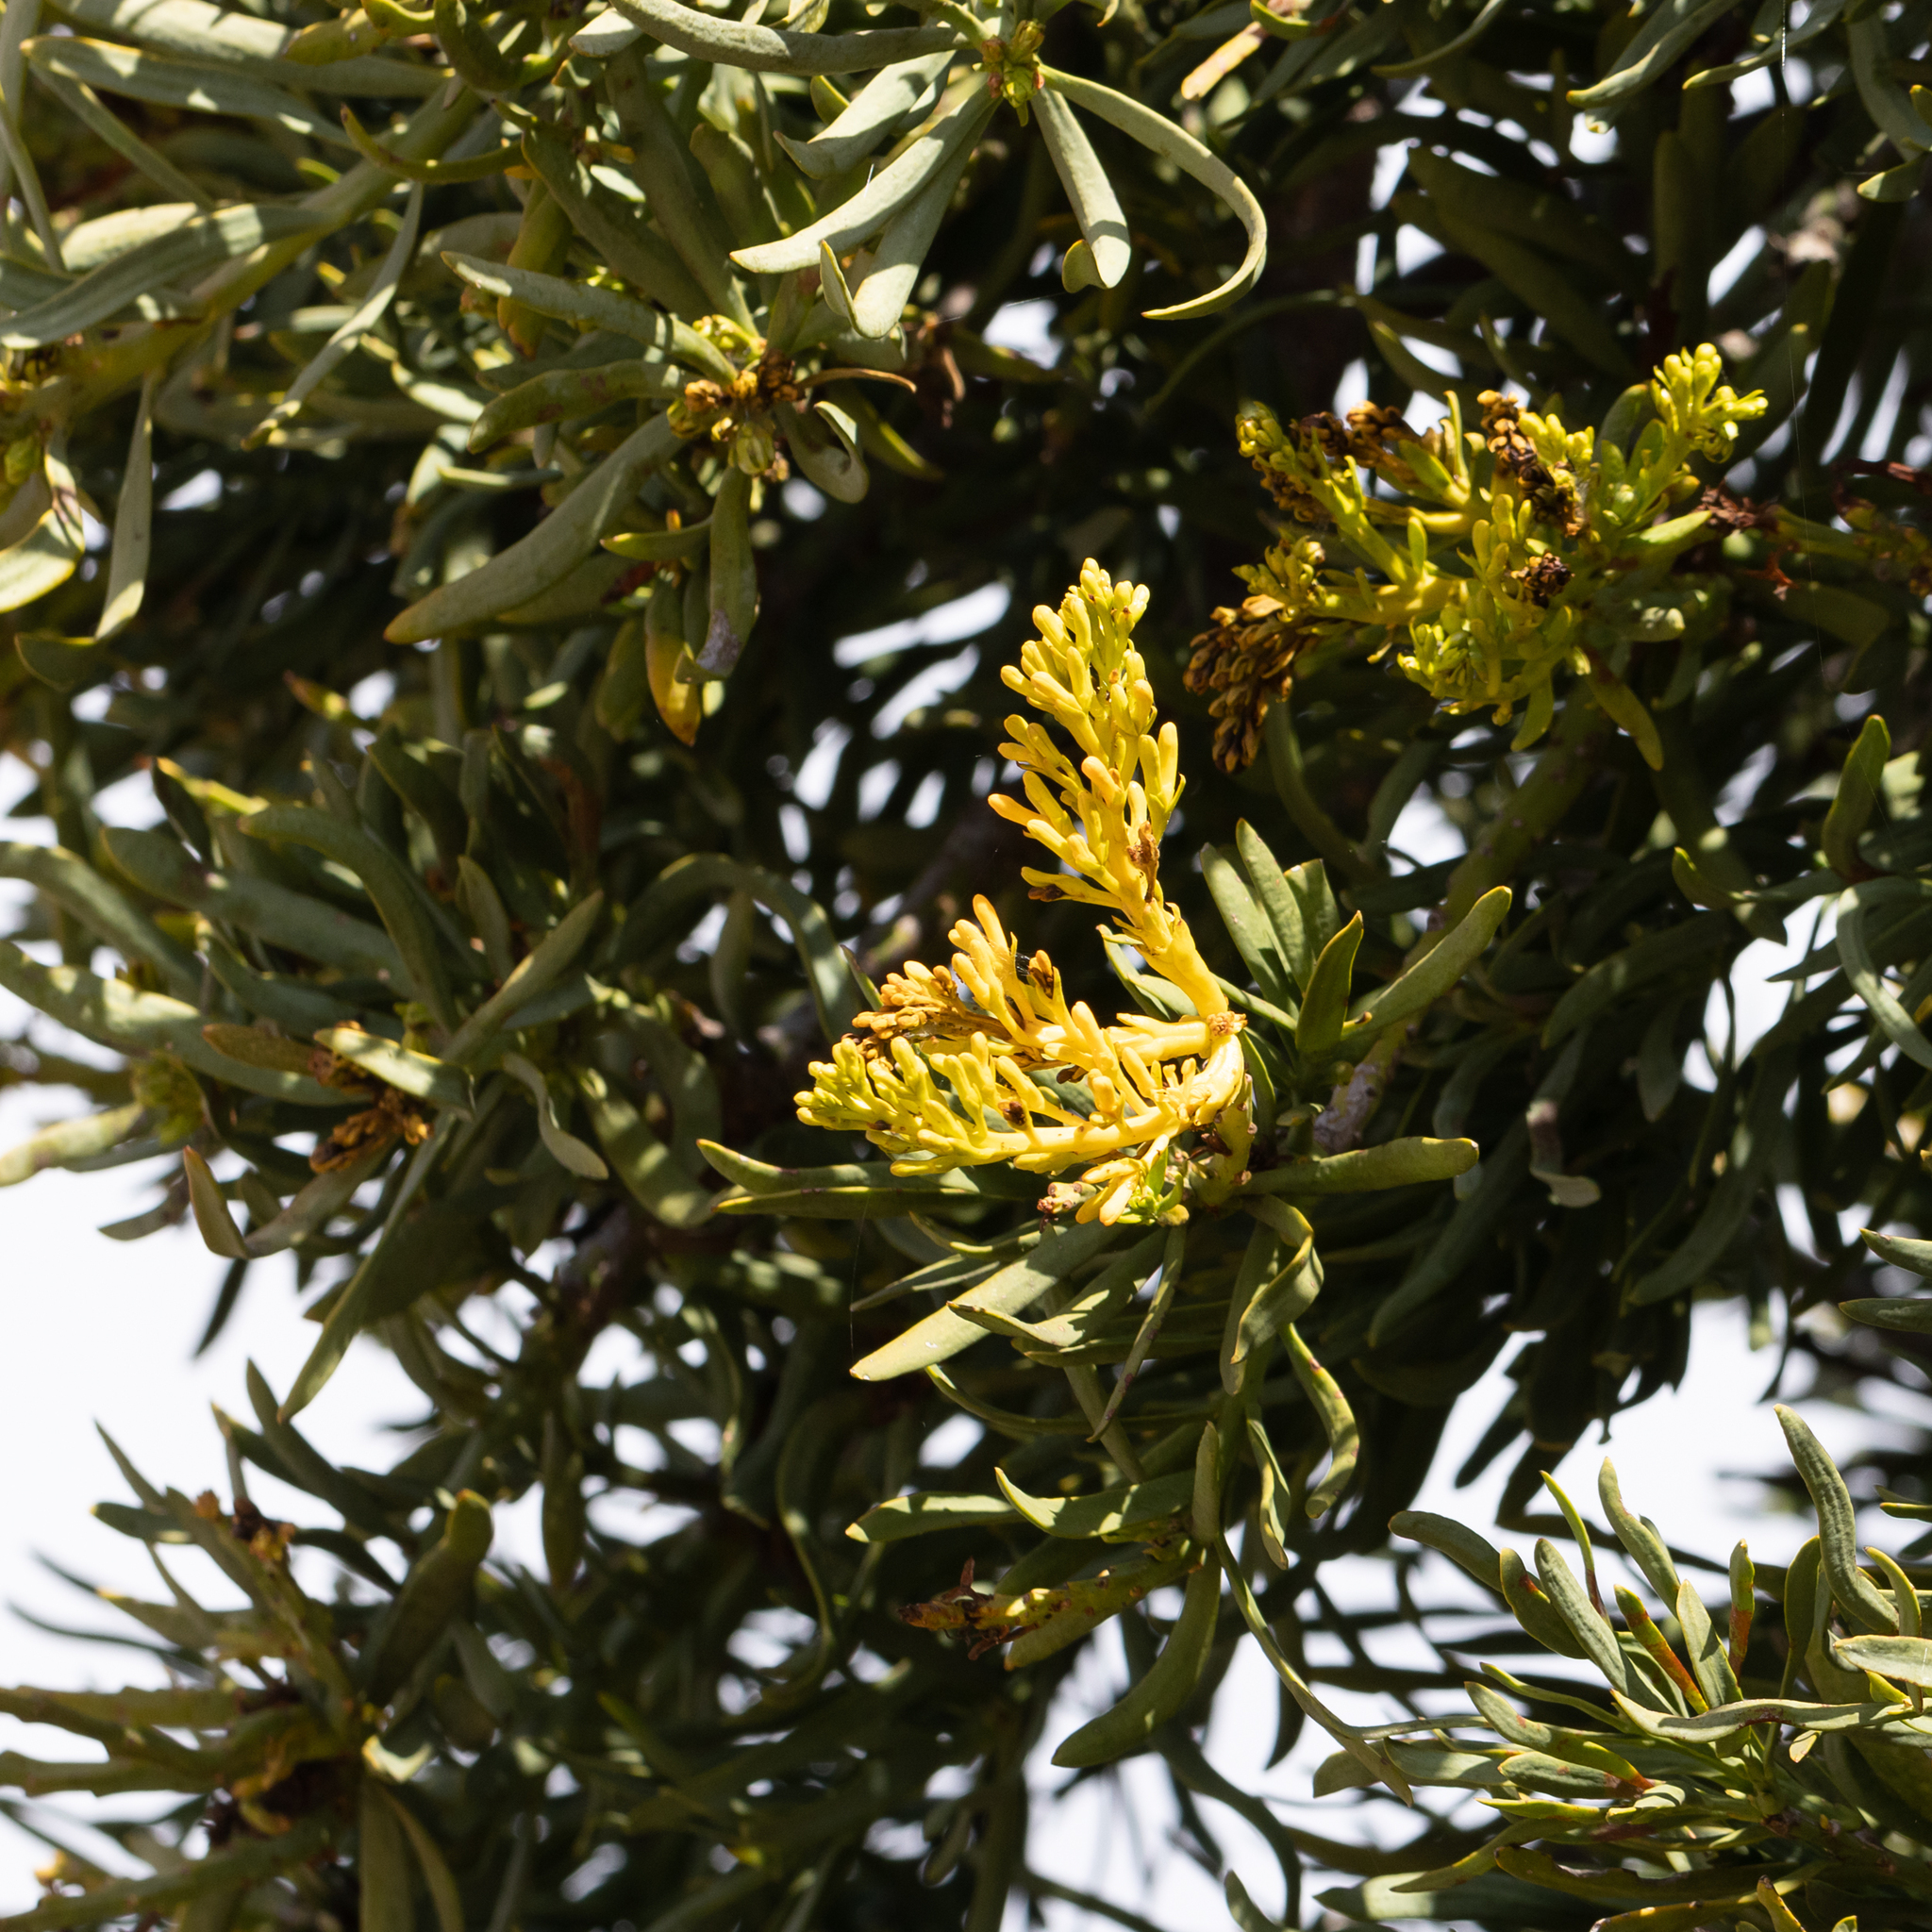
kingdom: Plantae
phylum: Tracheophyta
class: Magnoliopsida
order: Santalales
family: Loranthaceae
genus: Nuytsia
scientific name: Nuytsia floribunda
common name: Western australian christmastree
